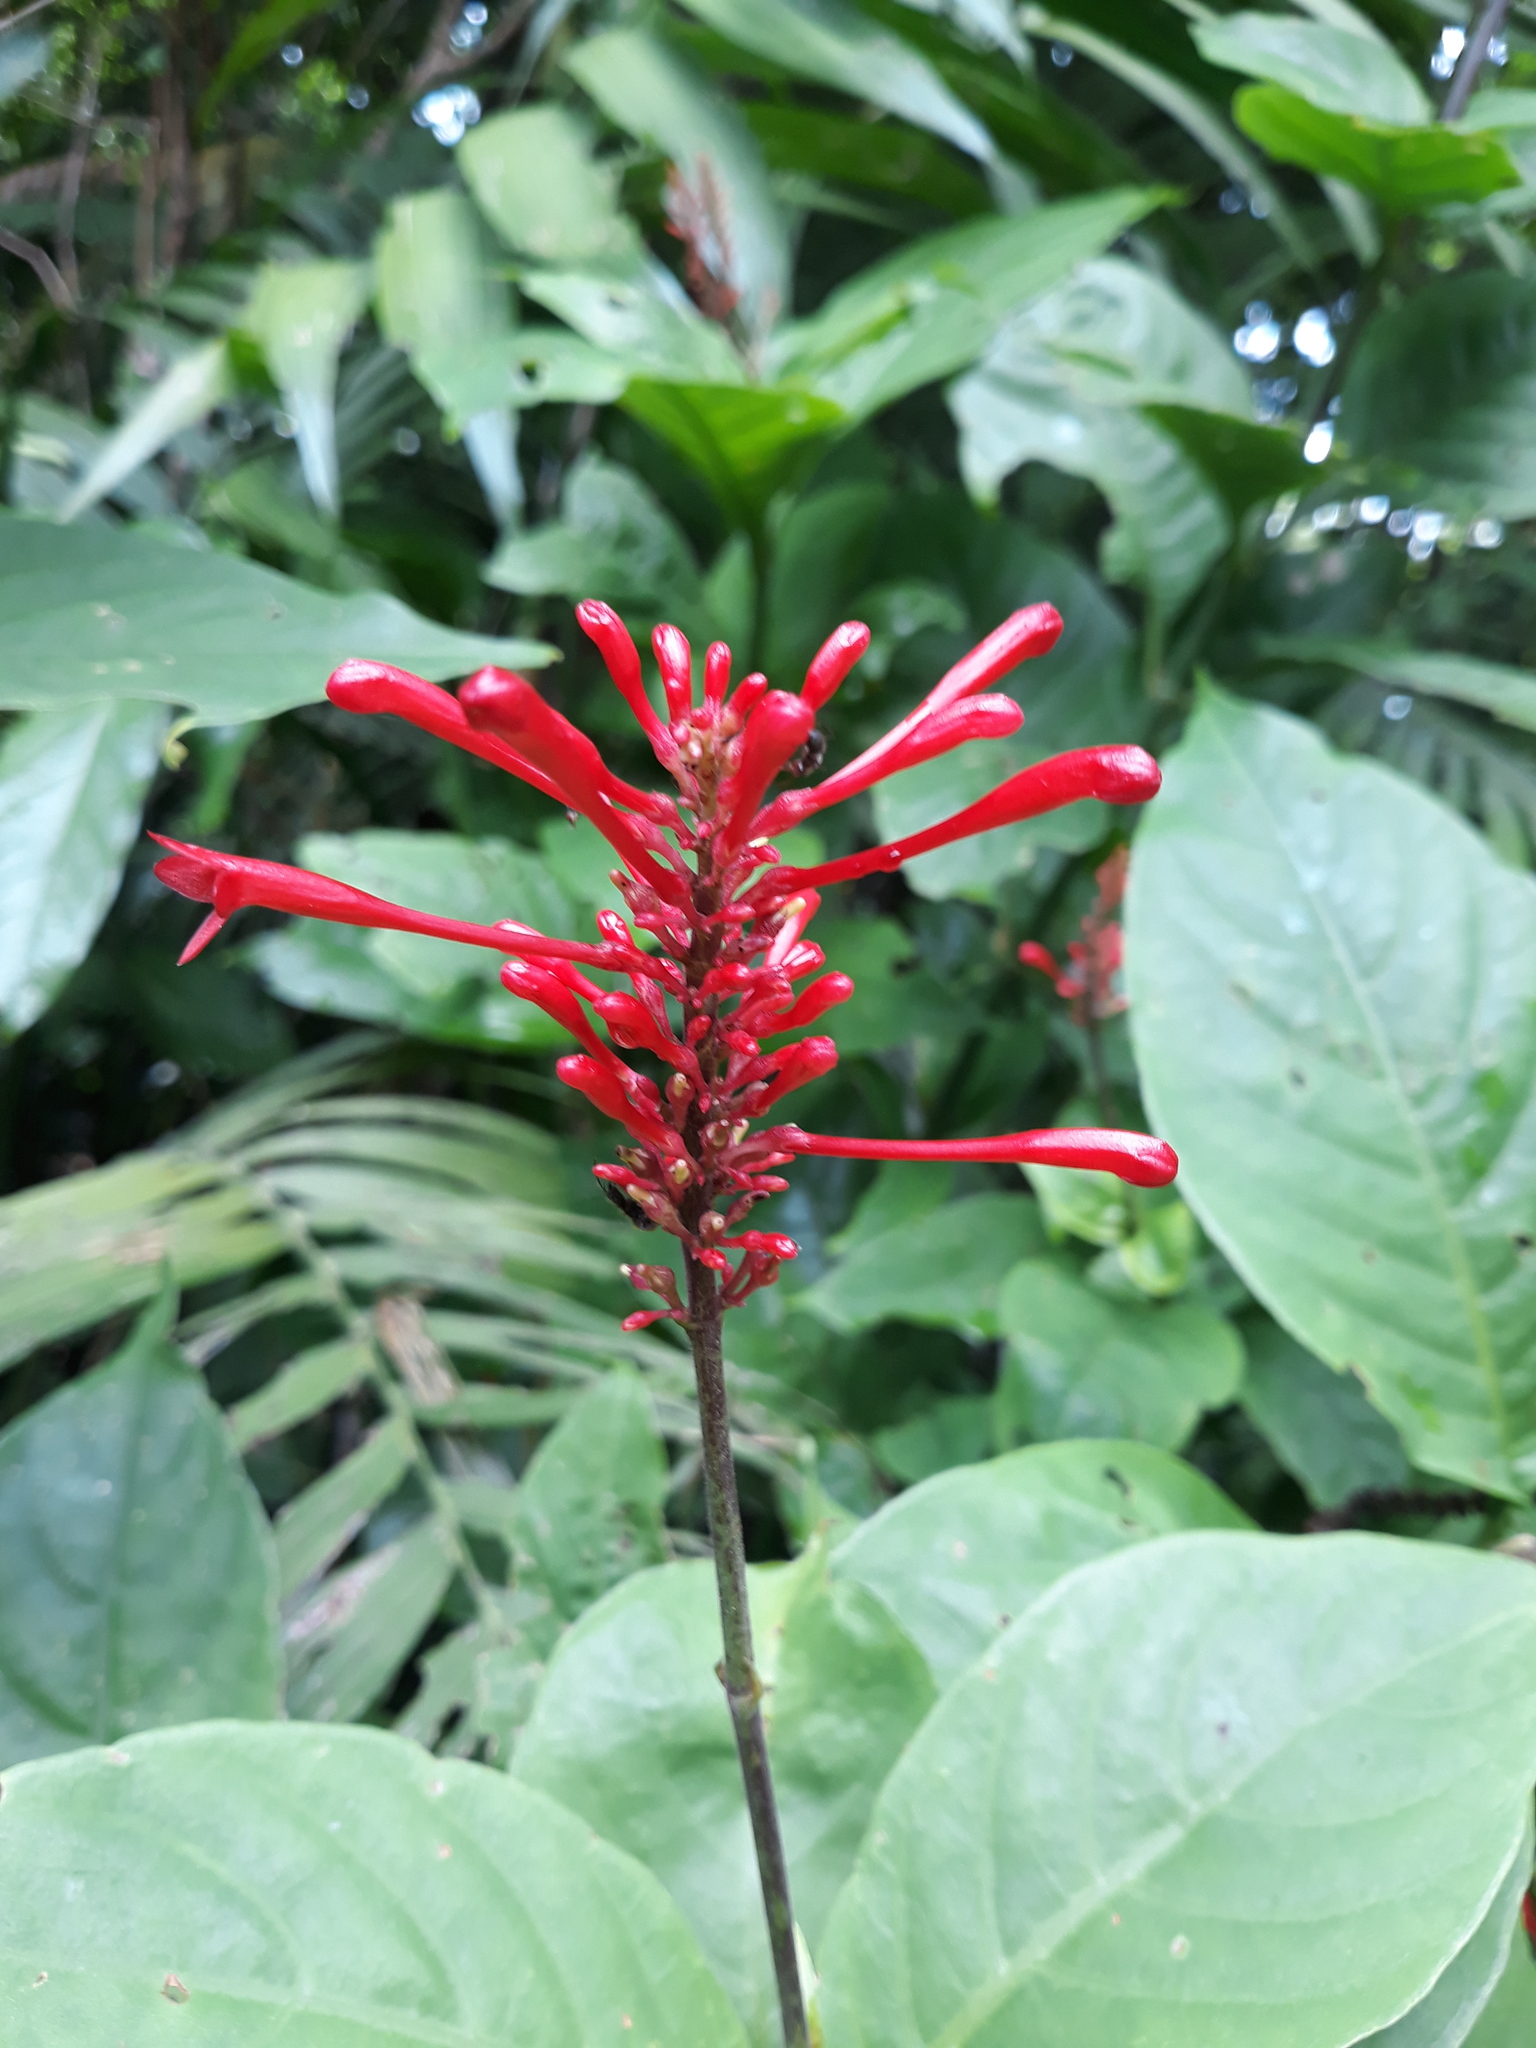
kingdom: Plantae
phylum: Tracheophyta
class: Magnoliopsida
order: Lamiales
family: Acanthaceae
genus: Odontonema
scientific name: Odontonema cuspidatum
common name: Mottled toothedthread
